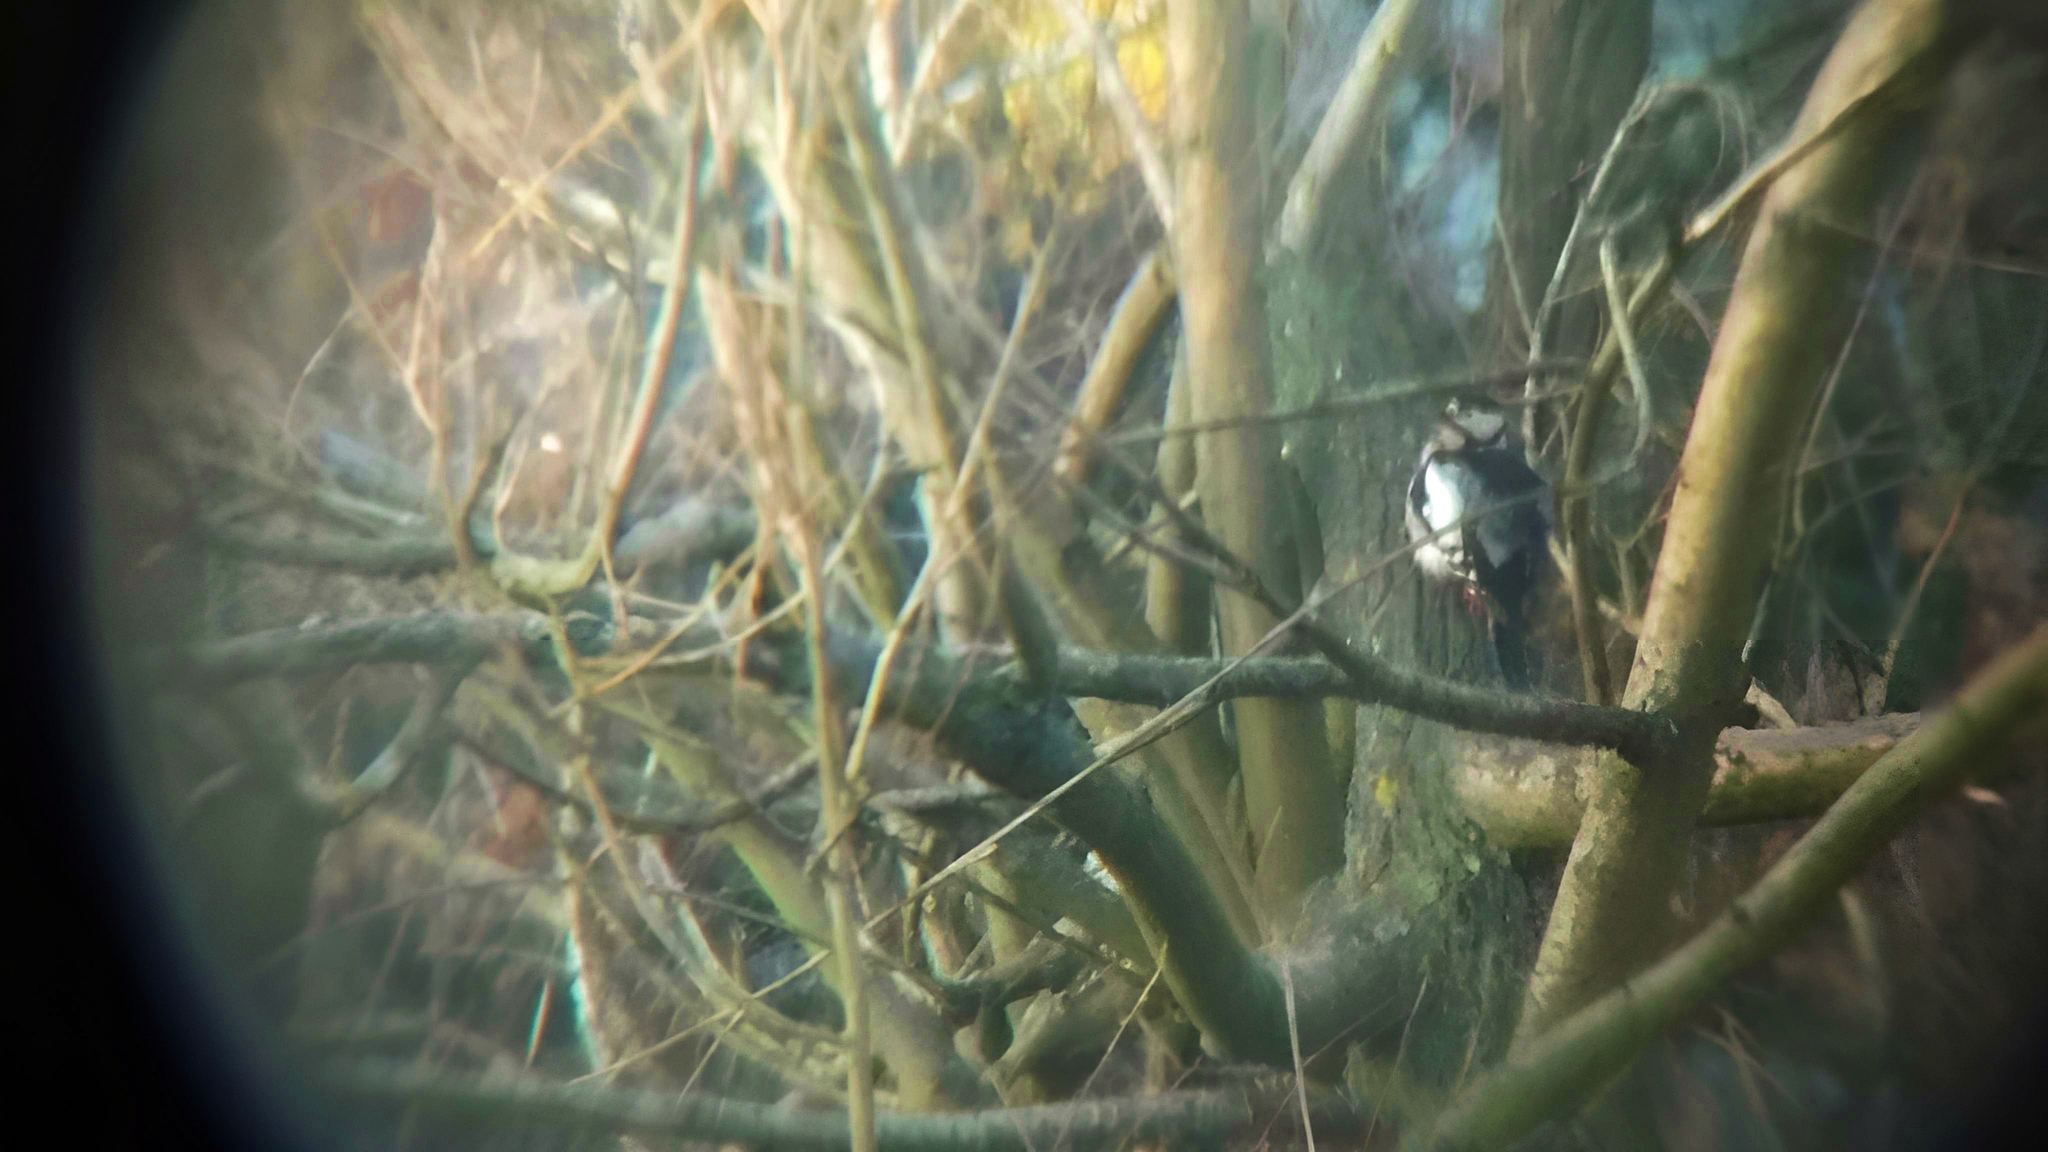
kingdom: Animalia
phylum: Chordata
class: Aves
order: Piciformes
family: Picidae
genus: Dendrocopos
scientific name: Dendrocopos major
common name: Great spotted woodpecker
